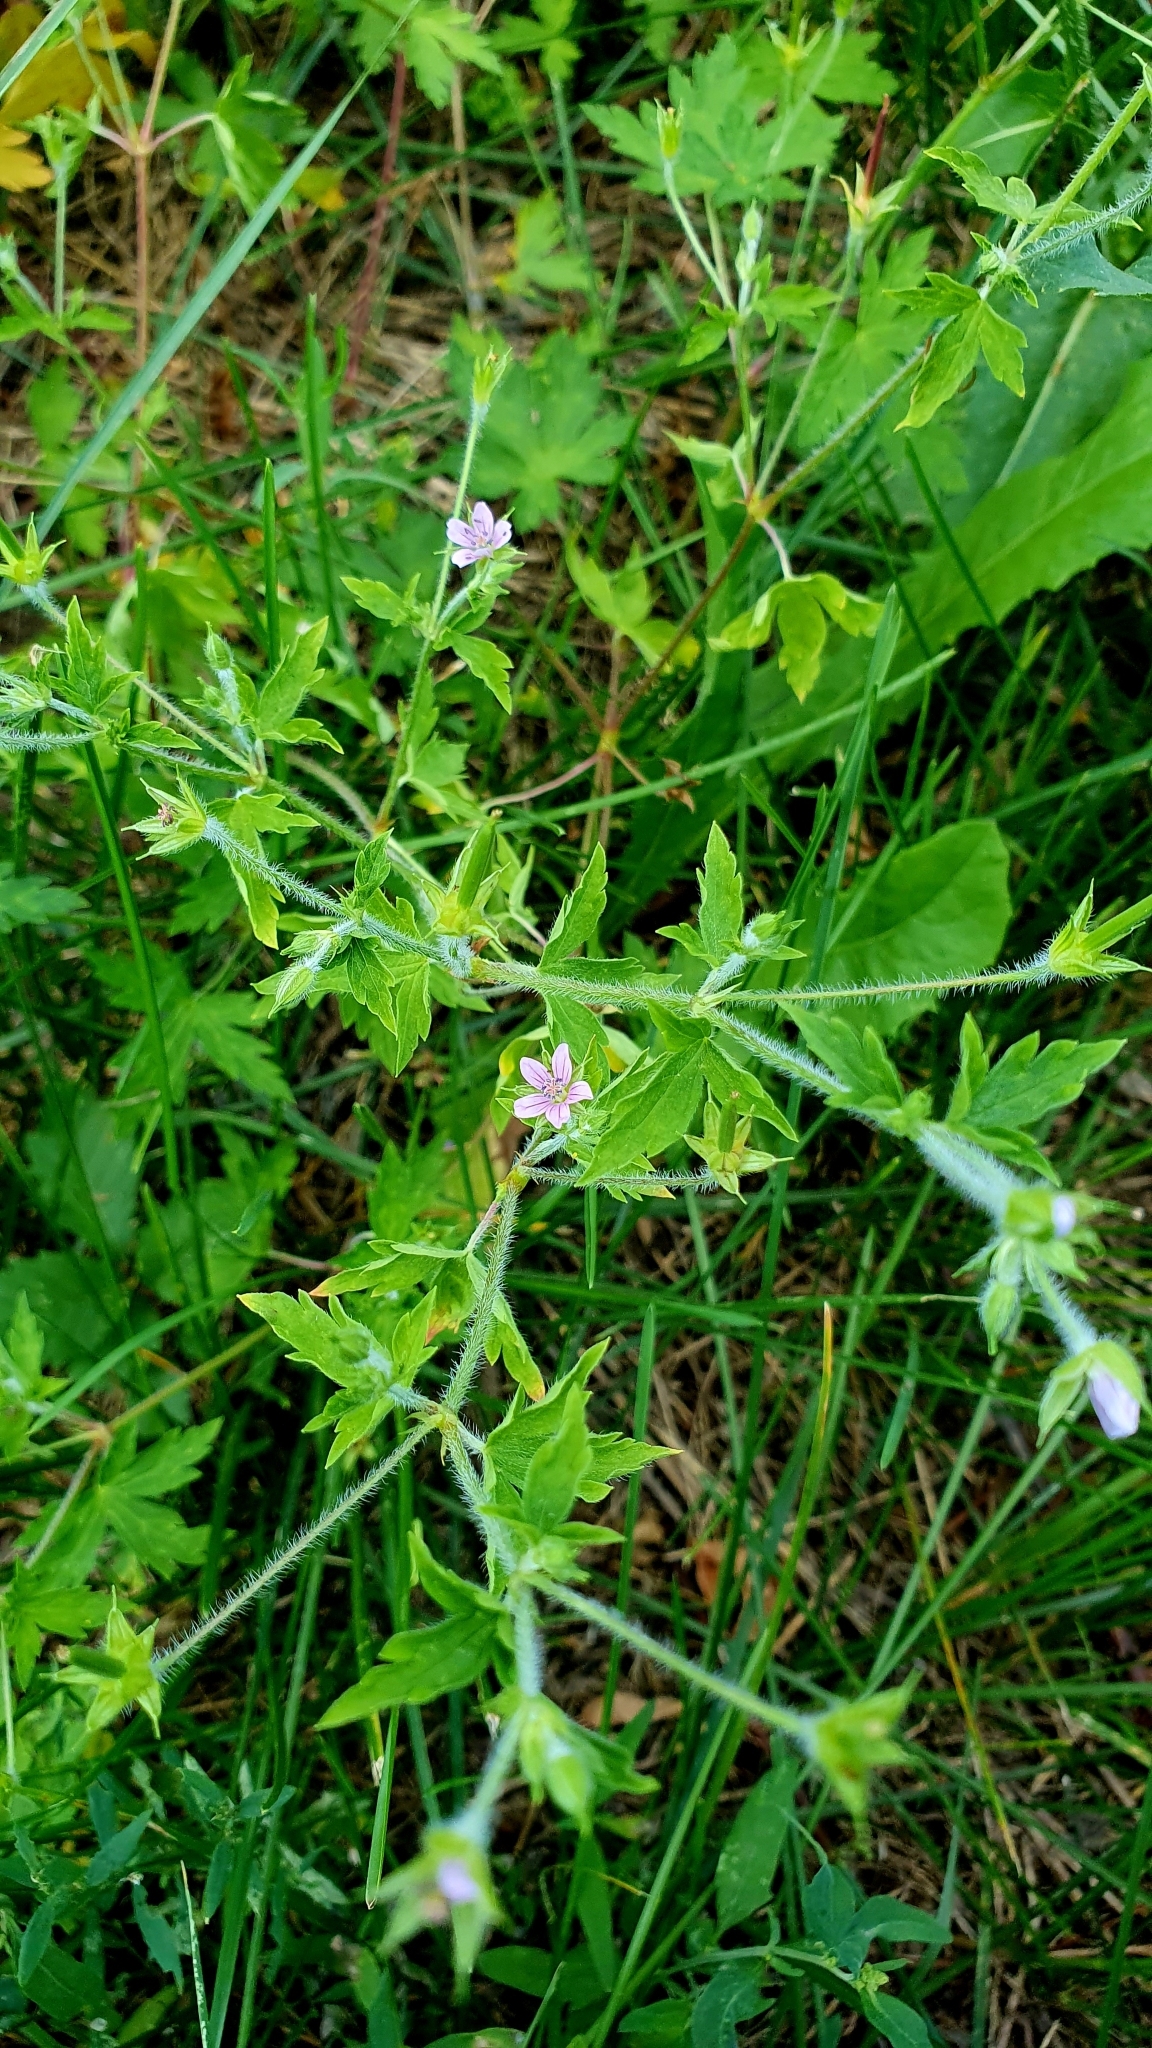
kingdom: Plantae
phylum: Tracheophyta
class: Magnoliopsida
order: Geraniales
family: Geraniaceae
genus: Geranium
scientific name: Geranium sibiricum
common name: Siberian crane's-bill
